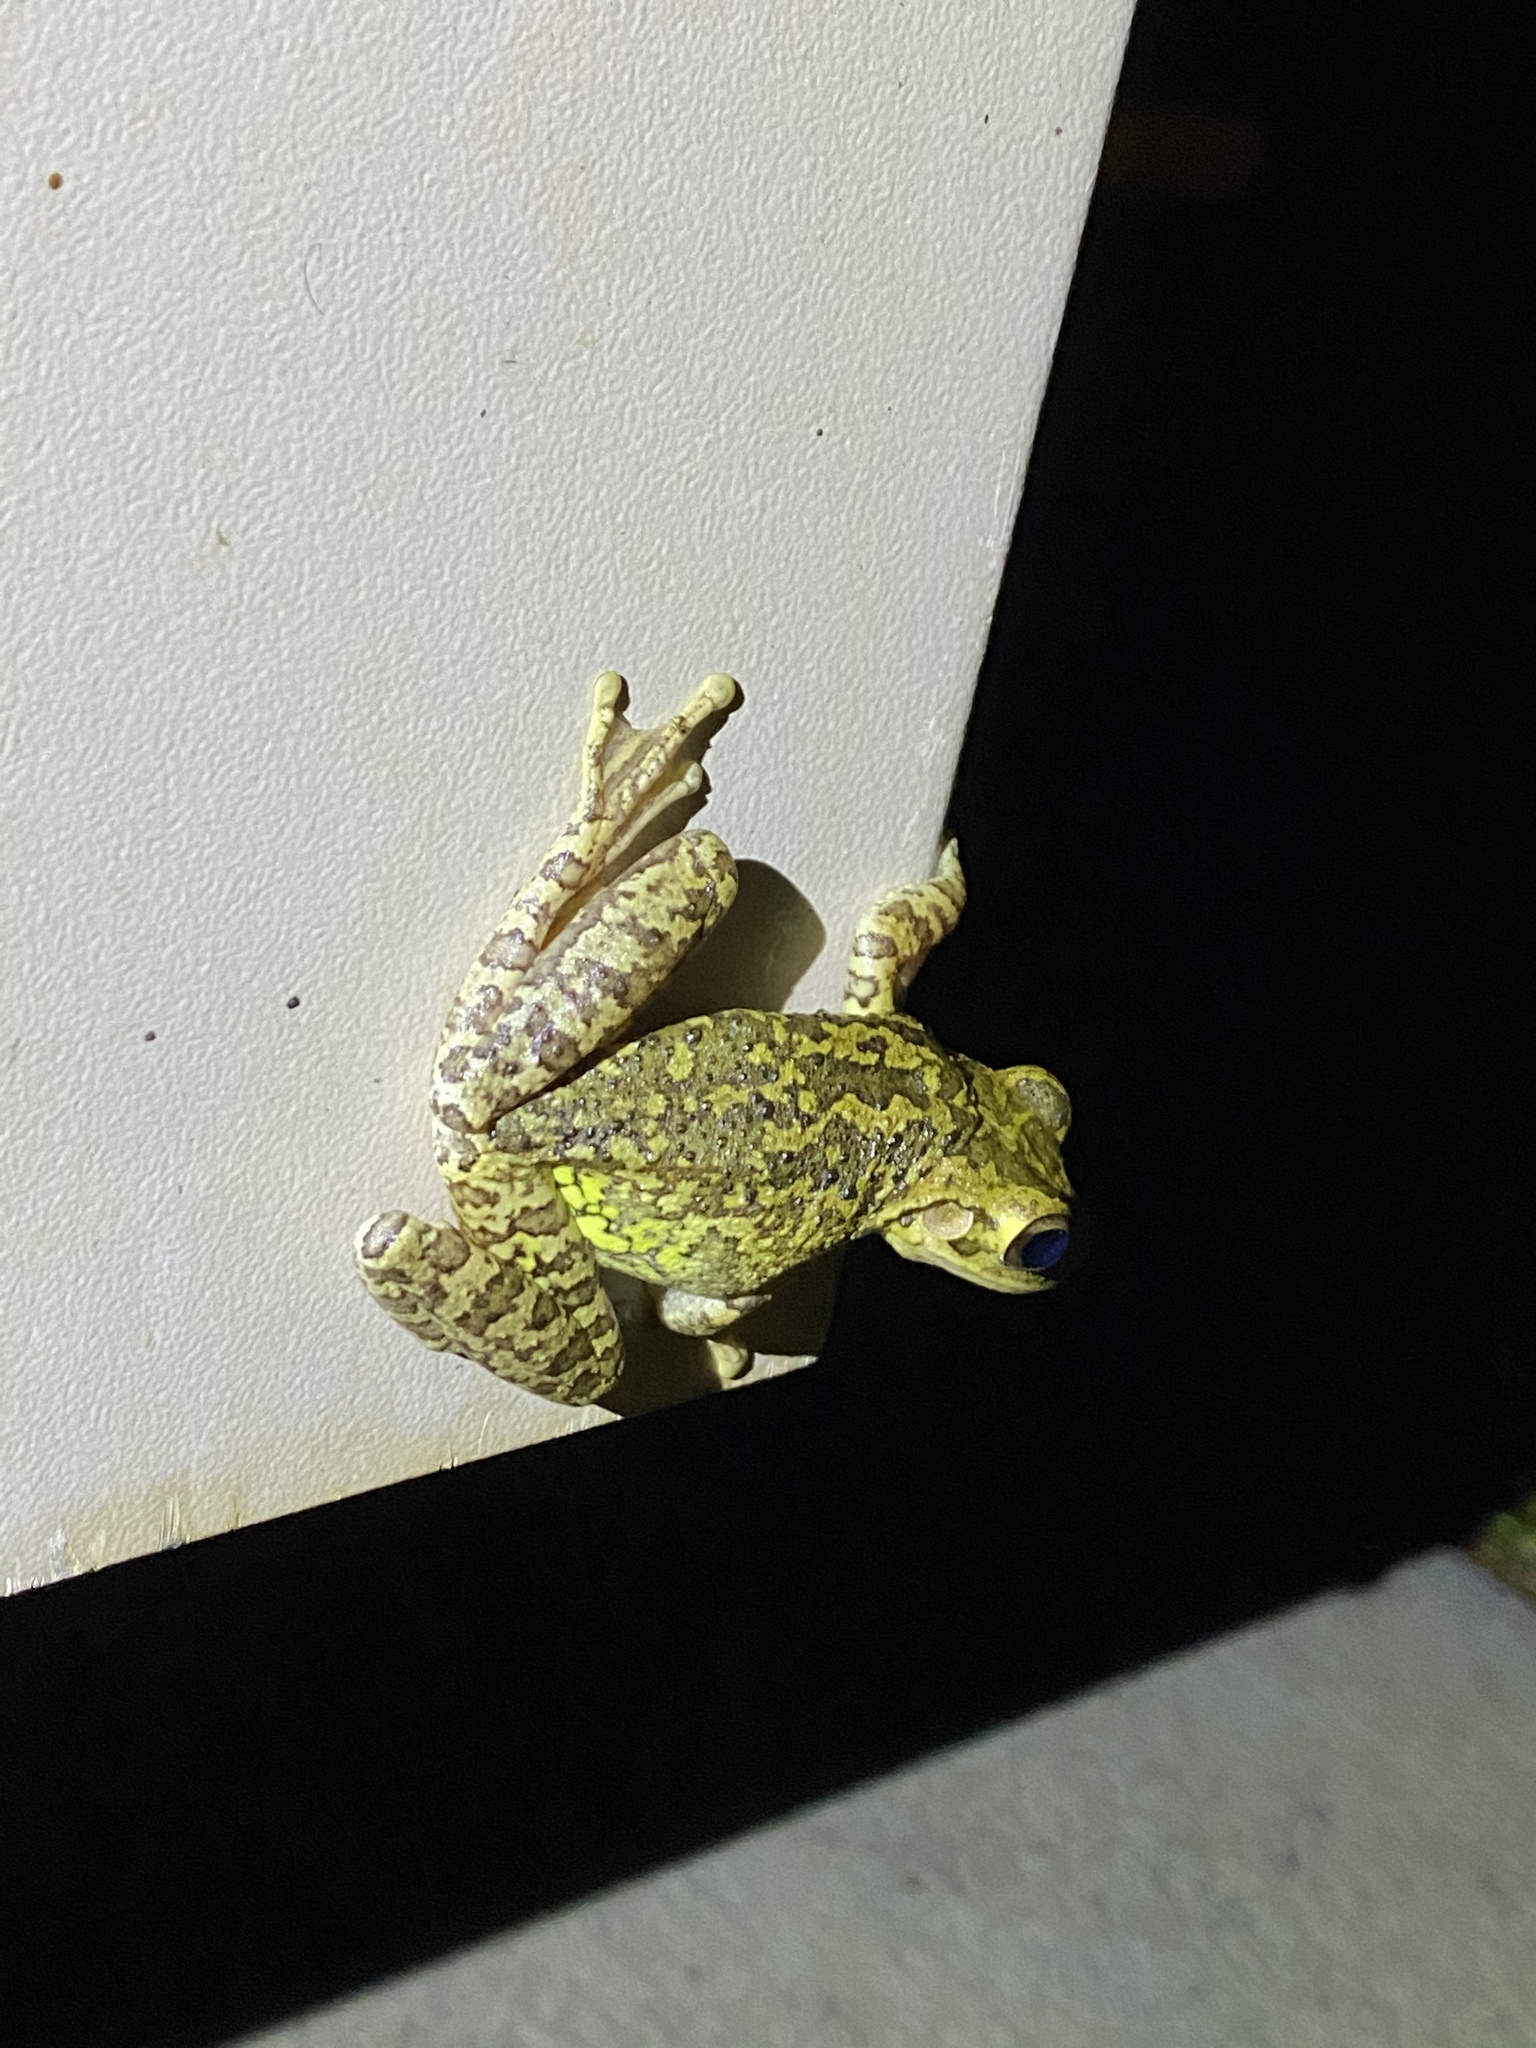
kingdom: Animalia
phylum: Chordata
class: Amphibia
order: Anura
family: Hylidae
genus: Osteopilus
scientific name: Osteopilus septentrionalis
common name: Cuban treefrog
